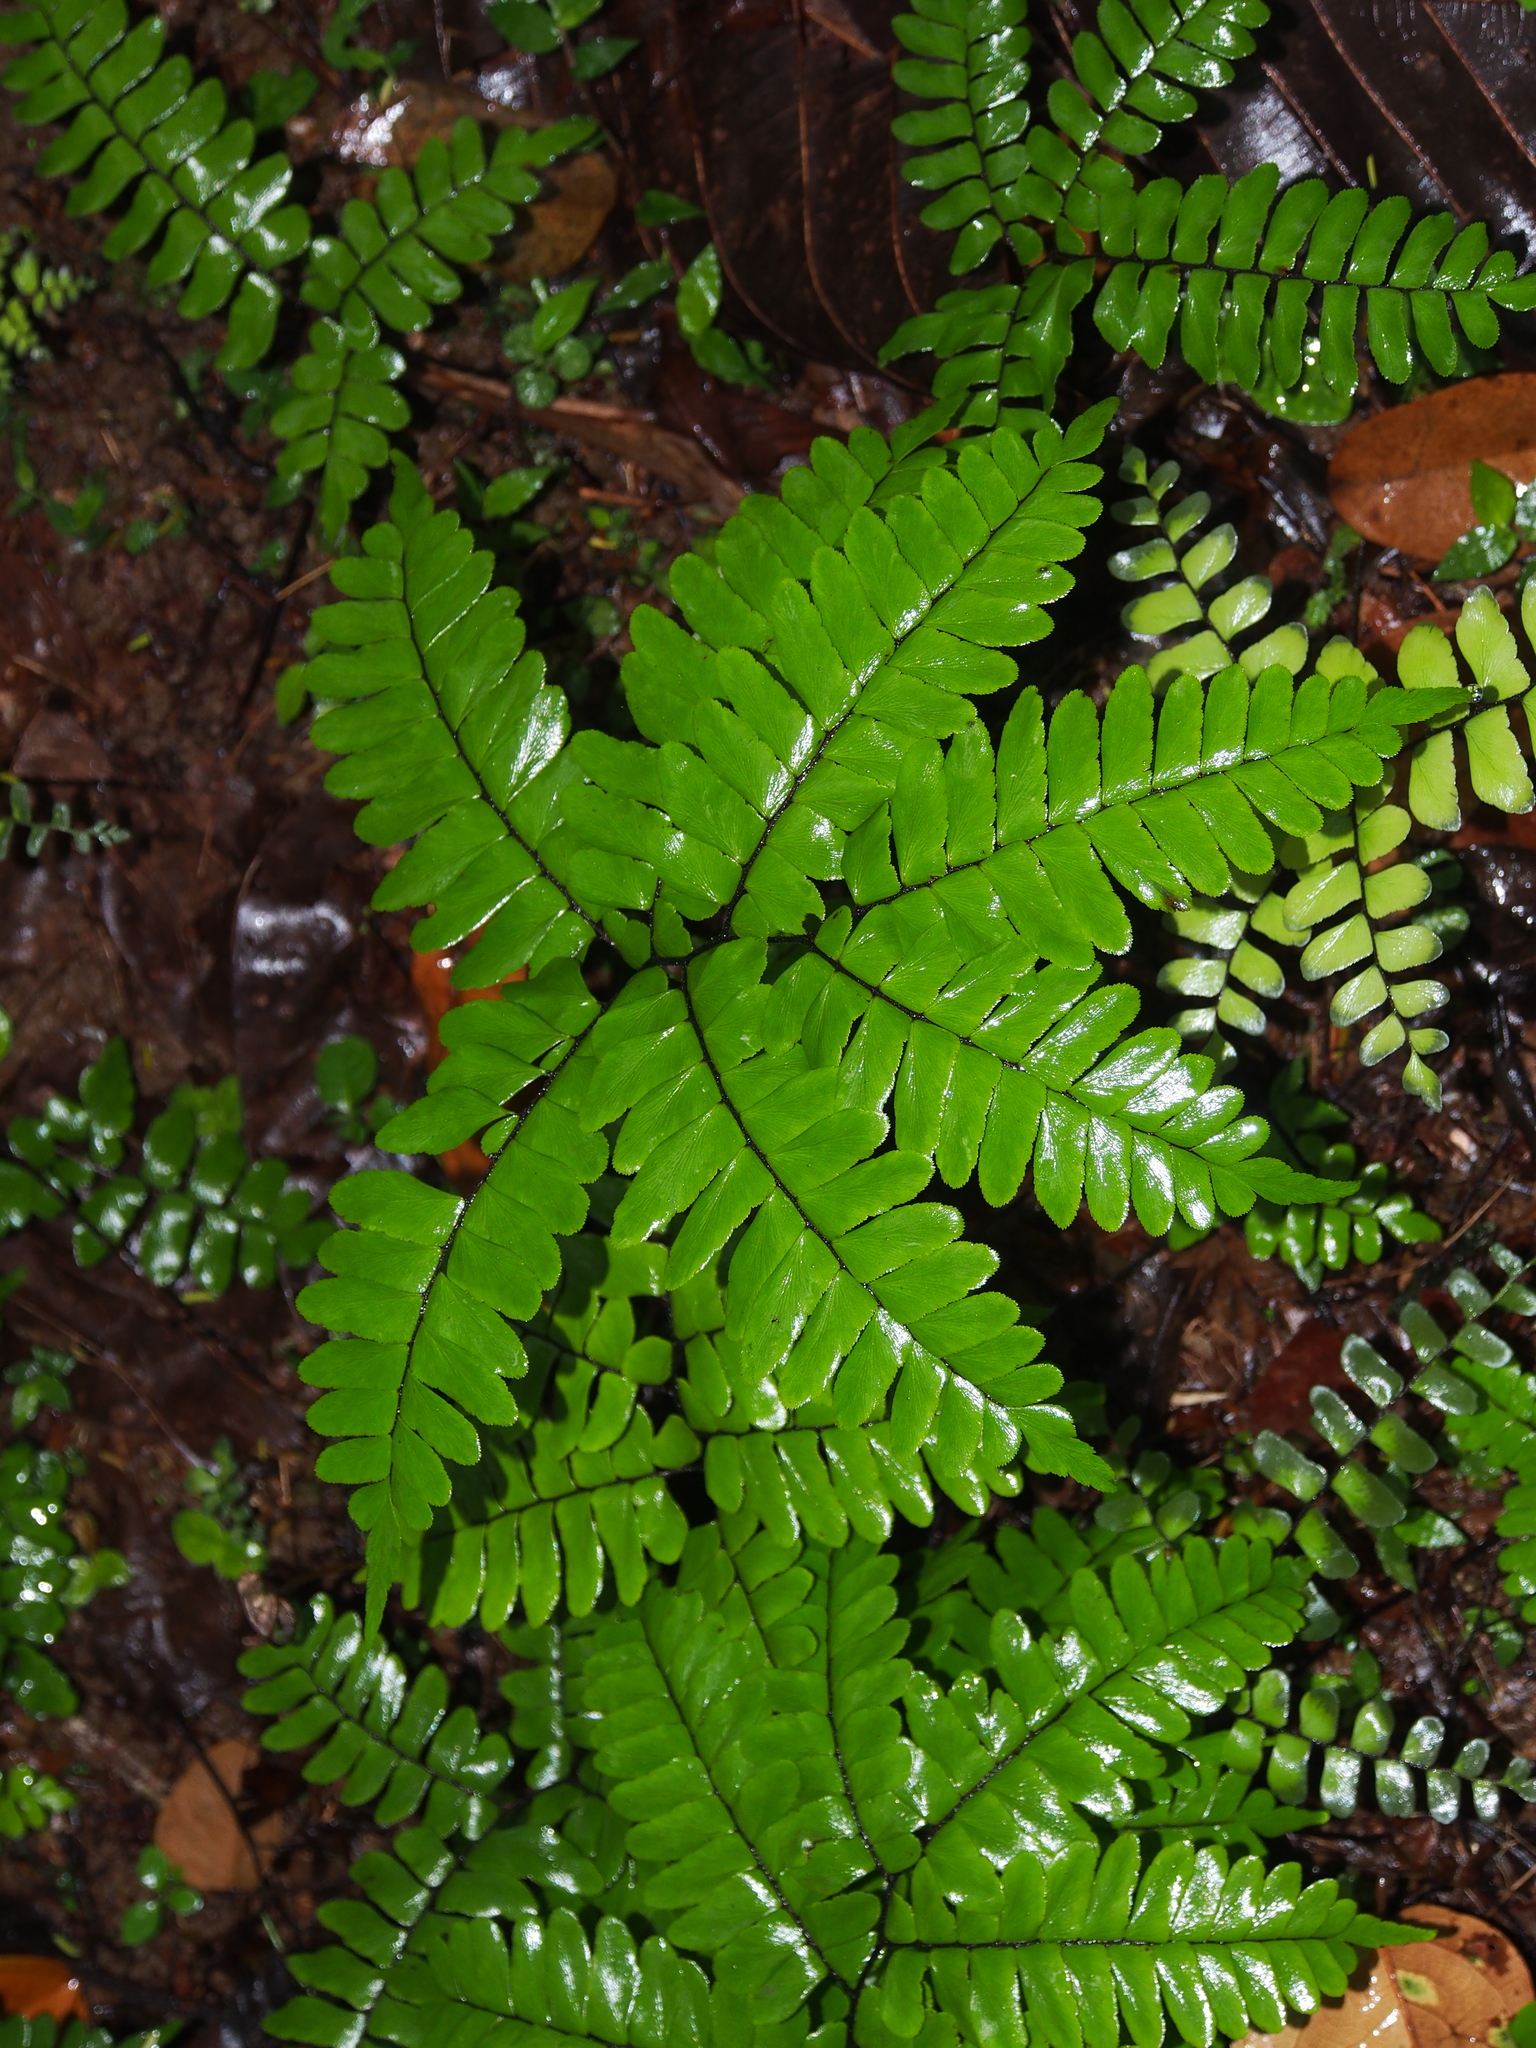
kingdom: Plantae
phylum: Tracheophyta
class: Polypodiopsida
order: Polypodiales
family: Pteridaceae
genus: Adiantum
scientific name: Adiantum latifolium
